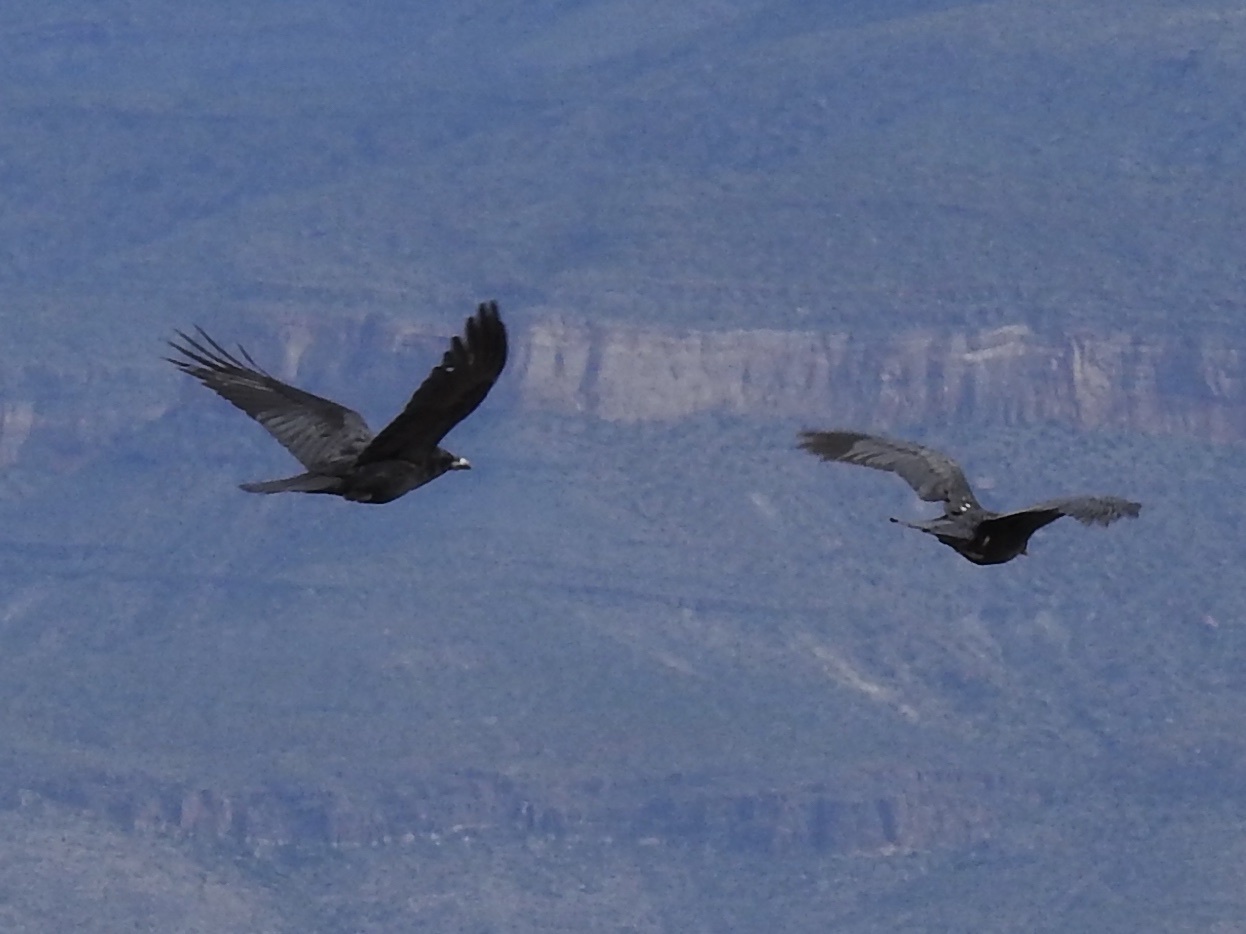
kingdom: Animalia
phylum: Chordata
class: Aves
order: Passeriformes
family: Corvidae
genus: Corvus
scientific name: Corvus corax
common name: Common raven
